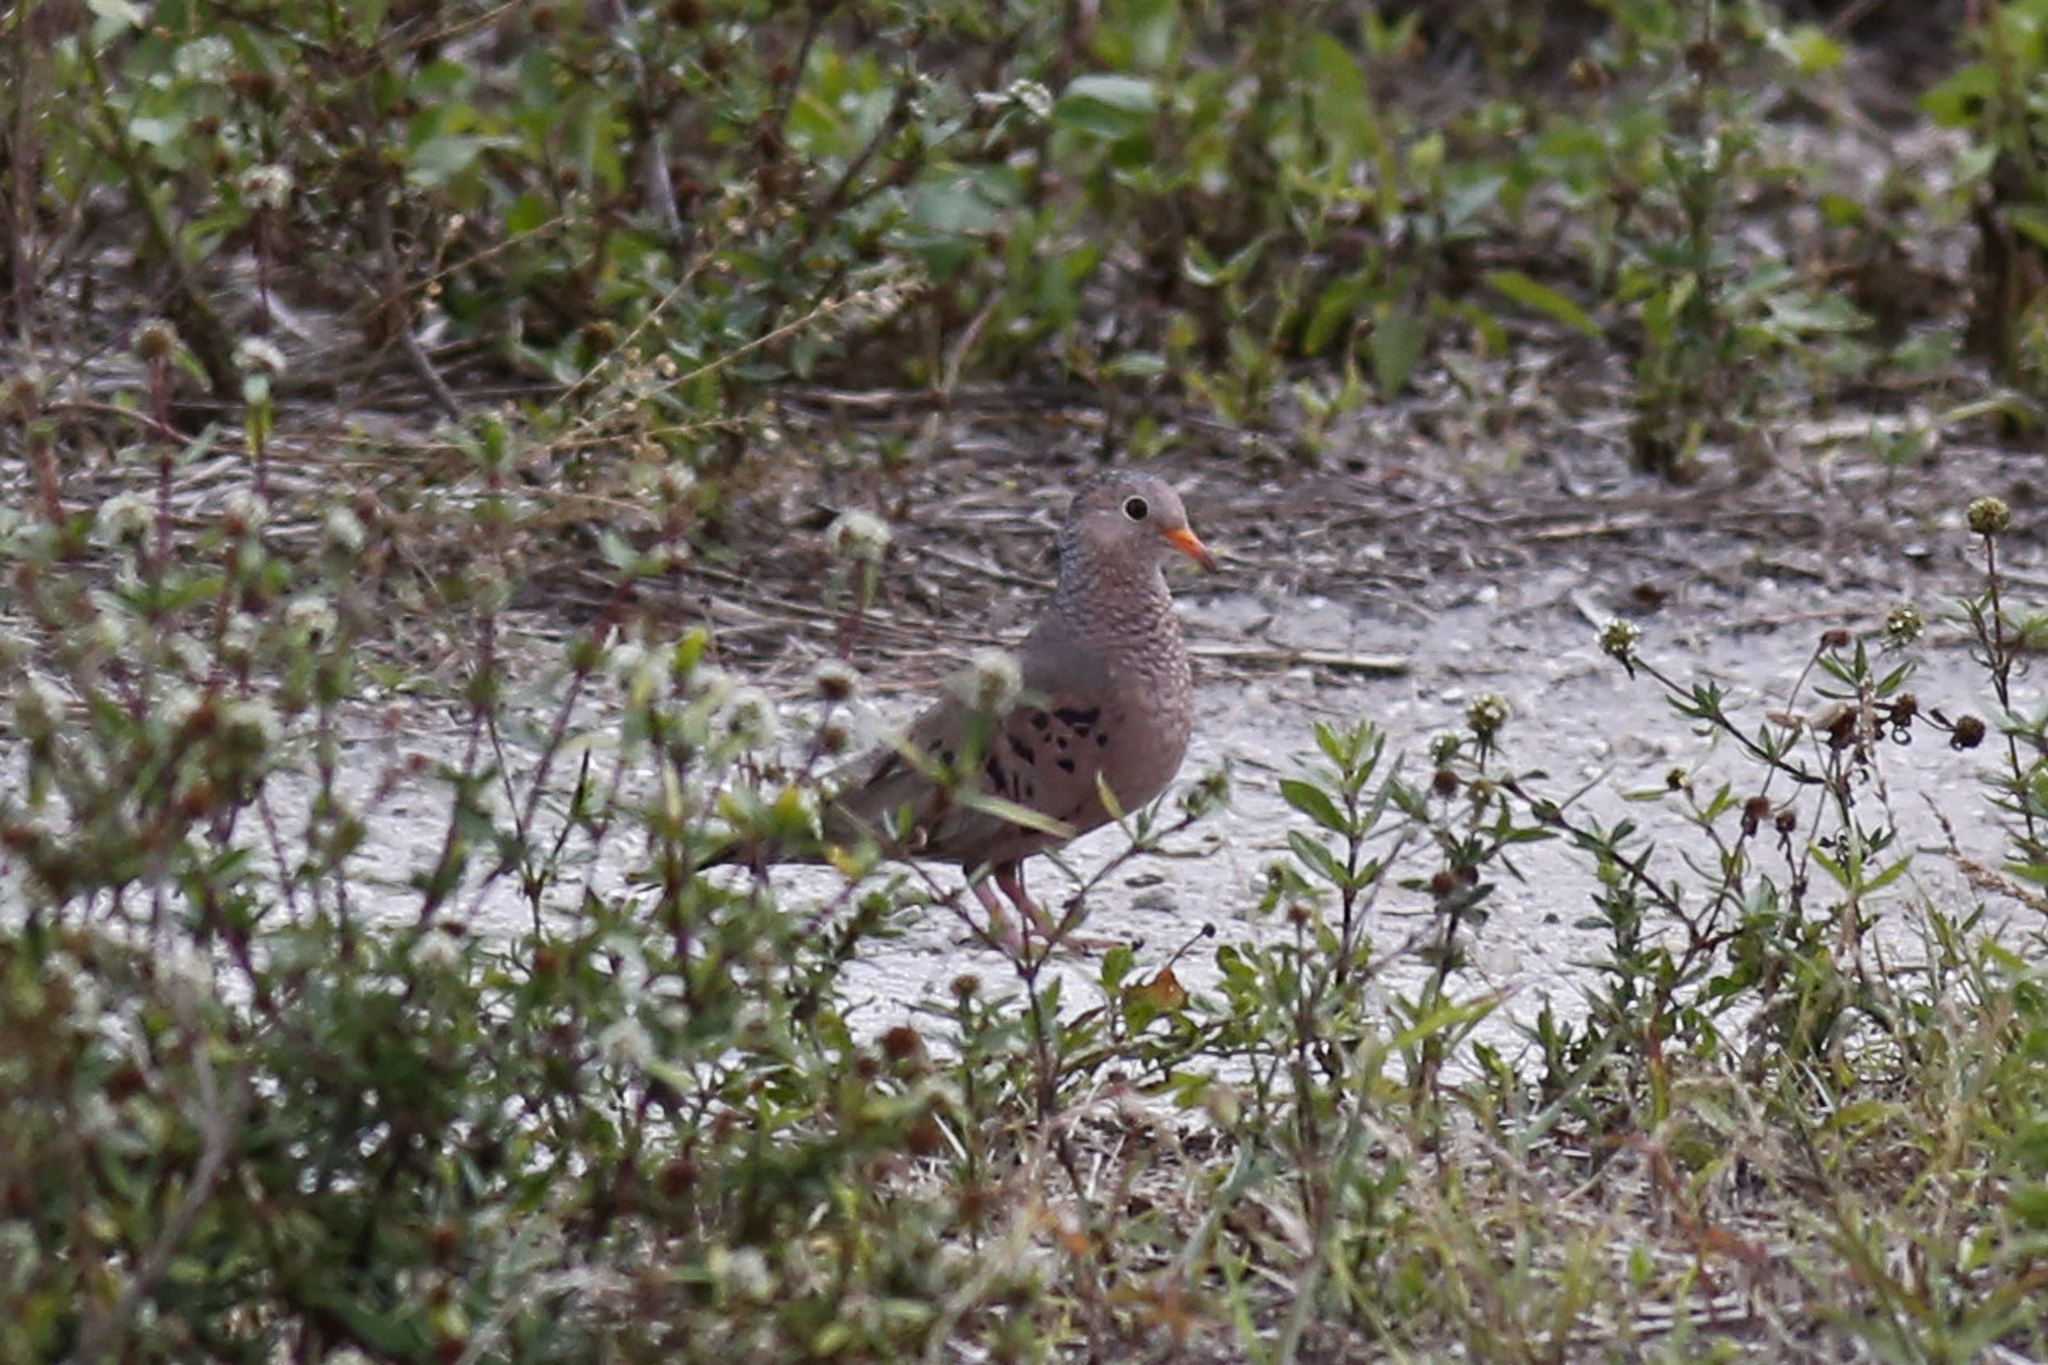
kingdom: Animalia
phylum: Chordata
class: Aves
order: Columbiformes
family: Columbidae
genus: Columbina
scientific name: Columbina passerina
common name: Common ground-dove
